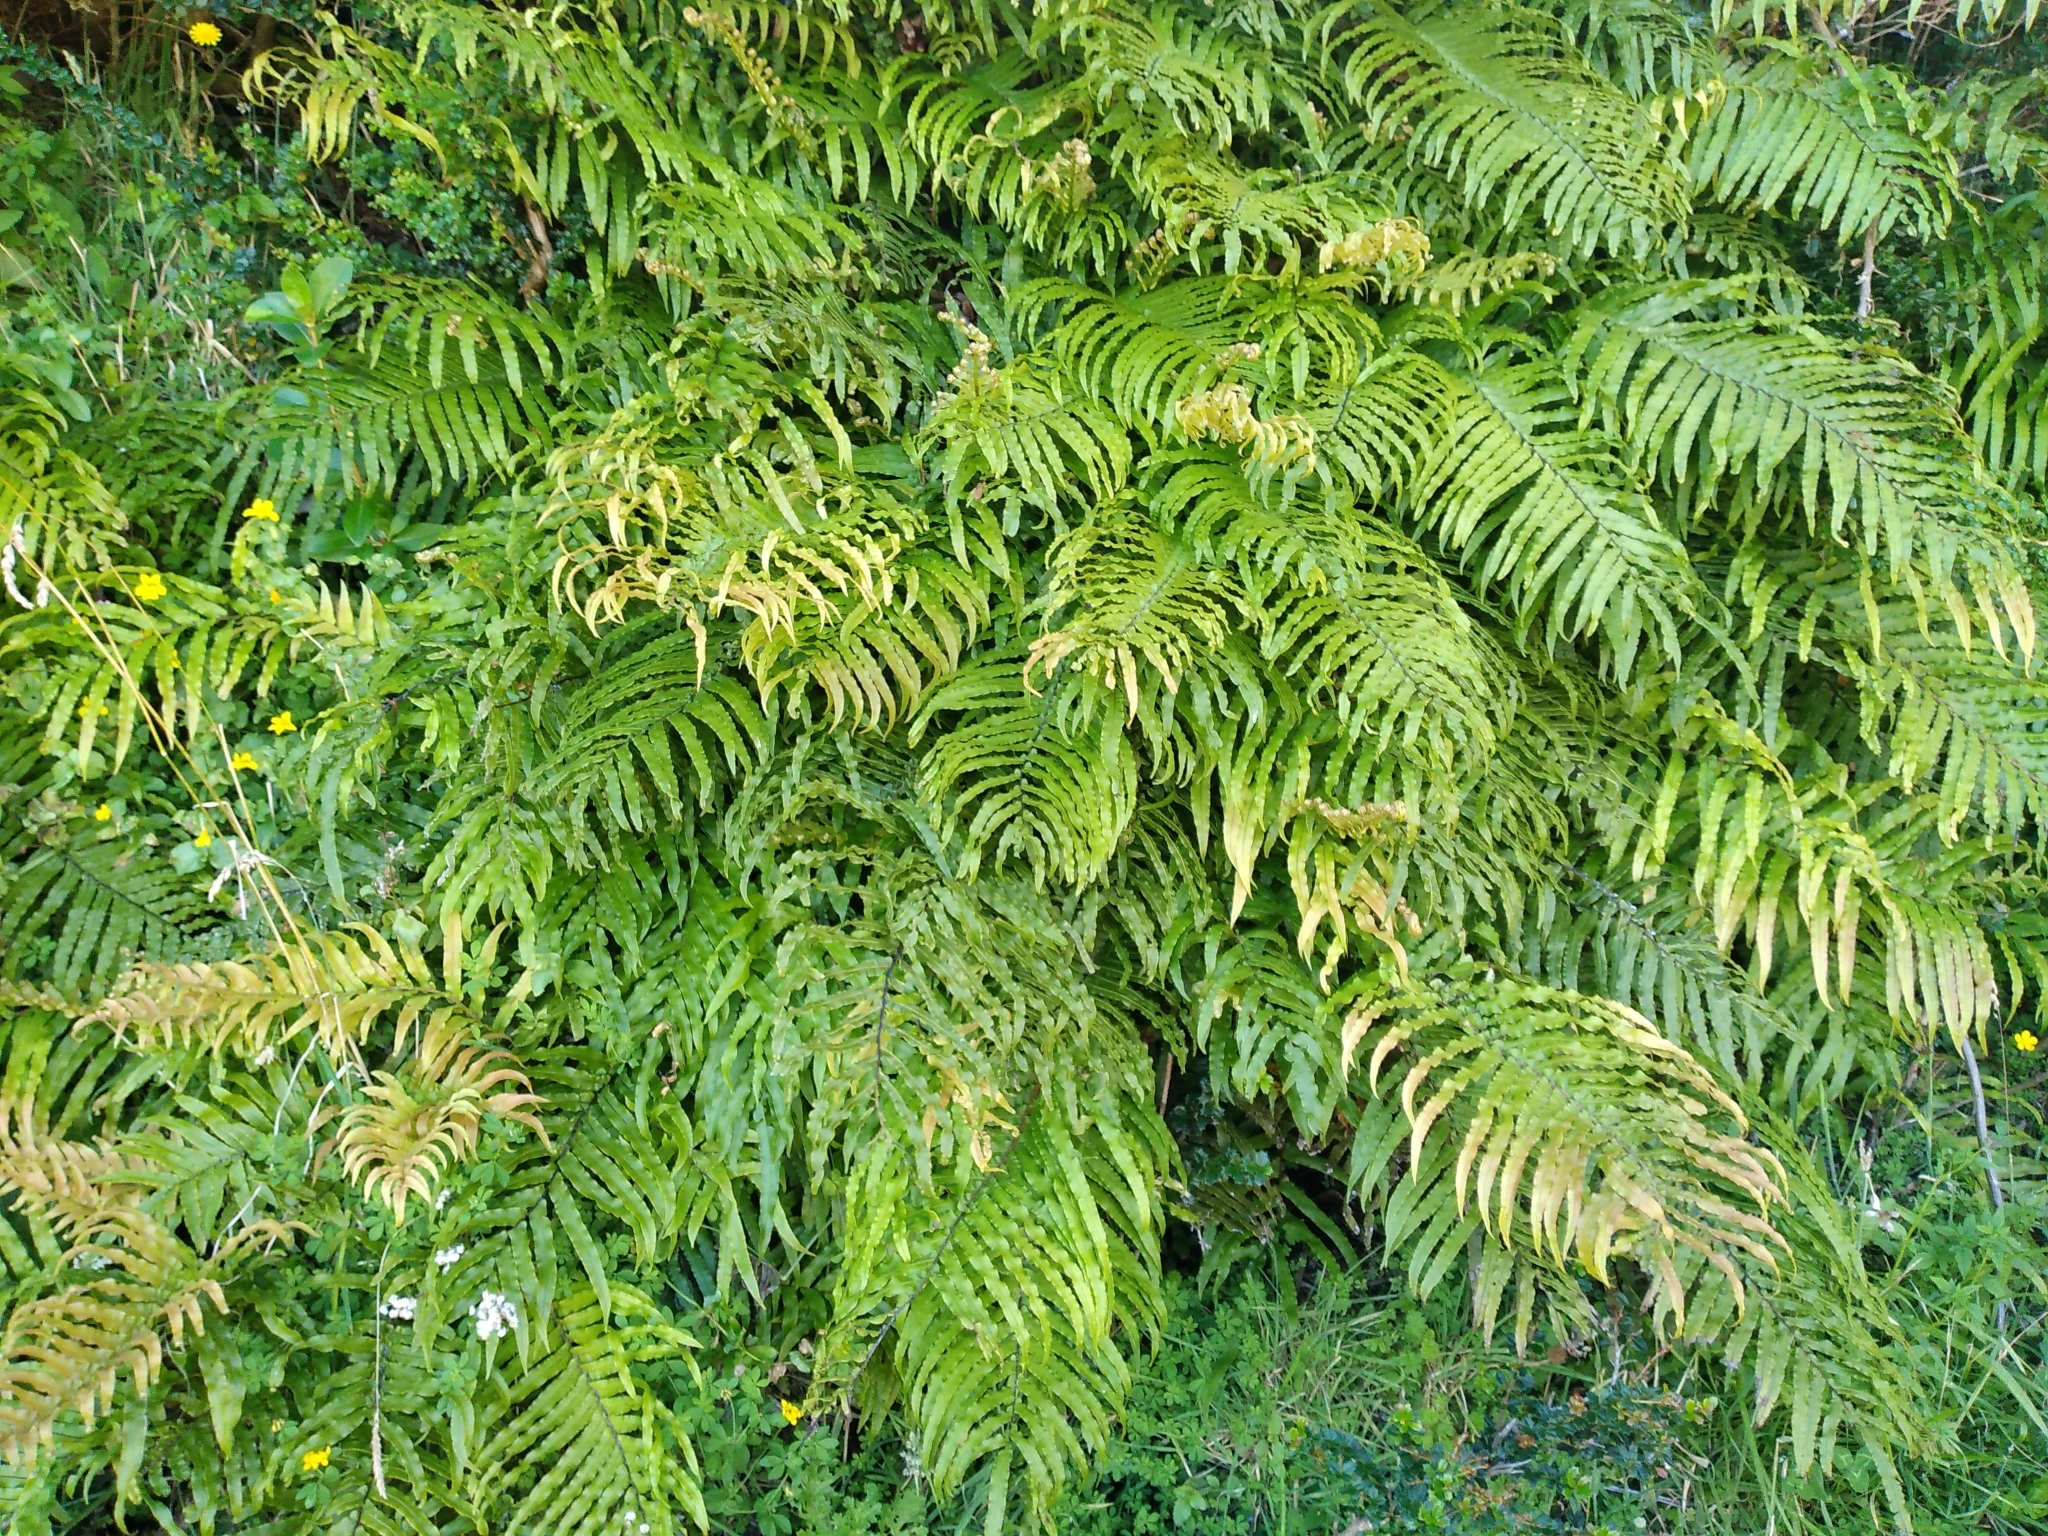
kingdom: Plantae
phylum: Tracheophyta
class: Polypodiopsida
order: Polypodiales
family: Blechnaceae
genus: Parablechnum
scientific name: Parablechnum minus
